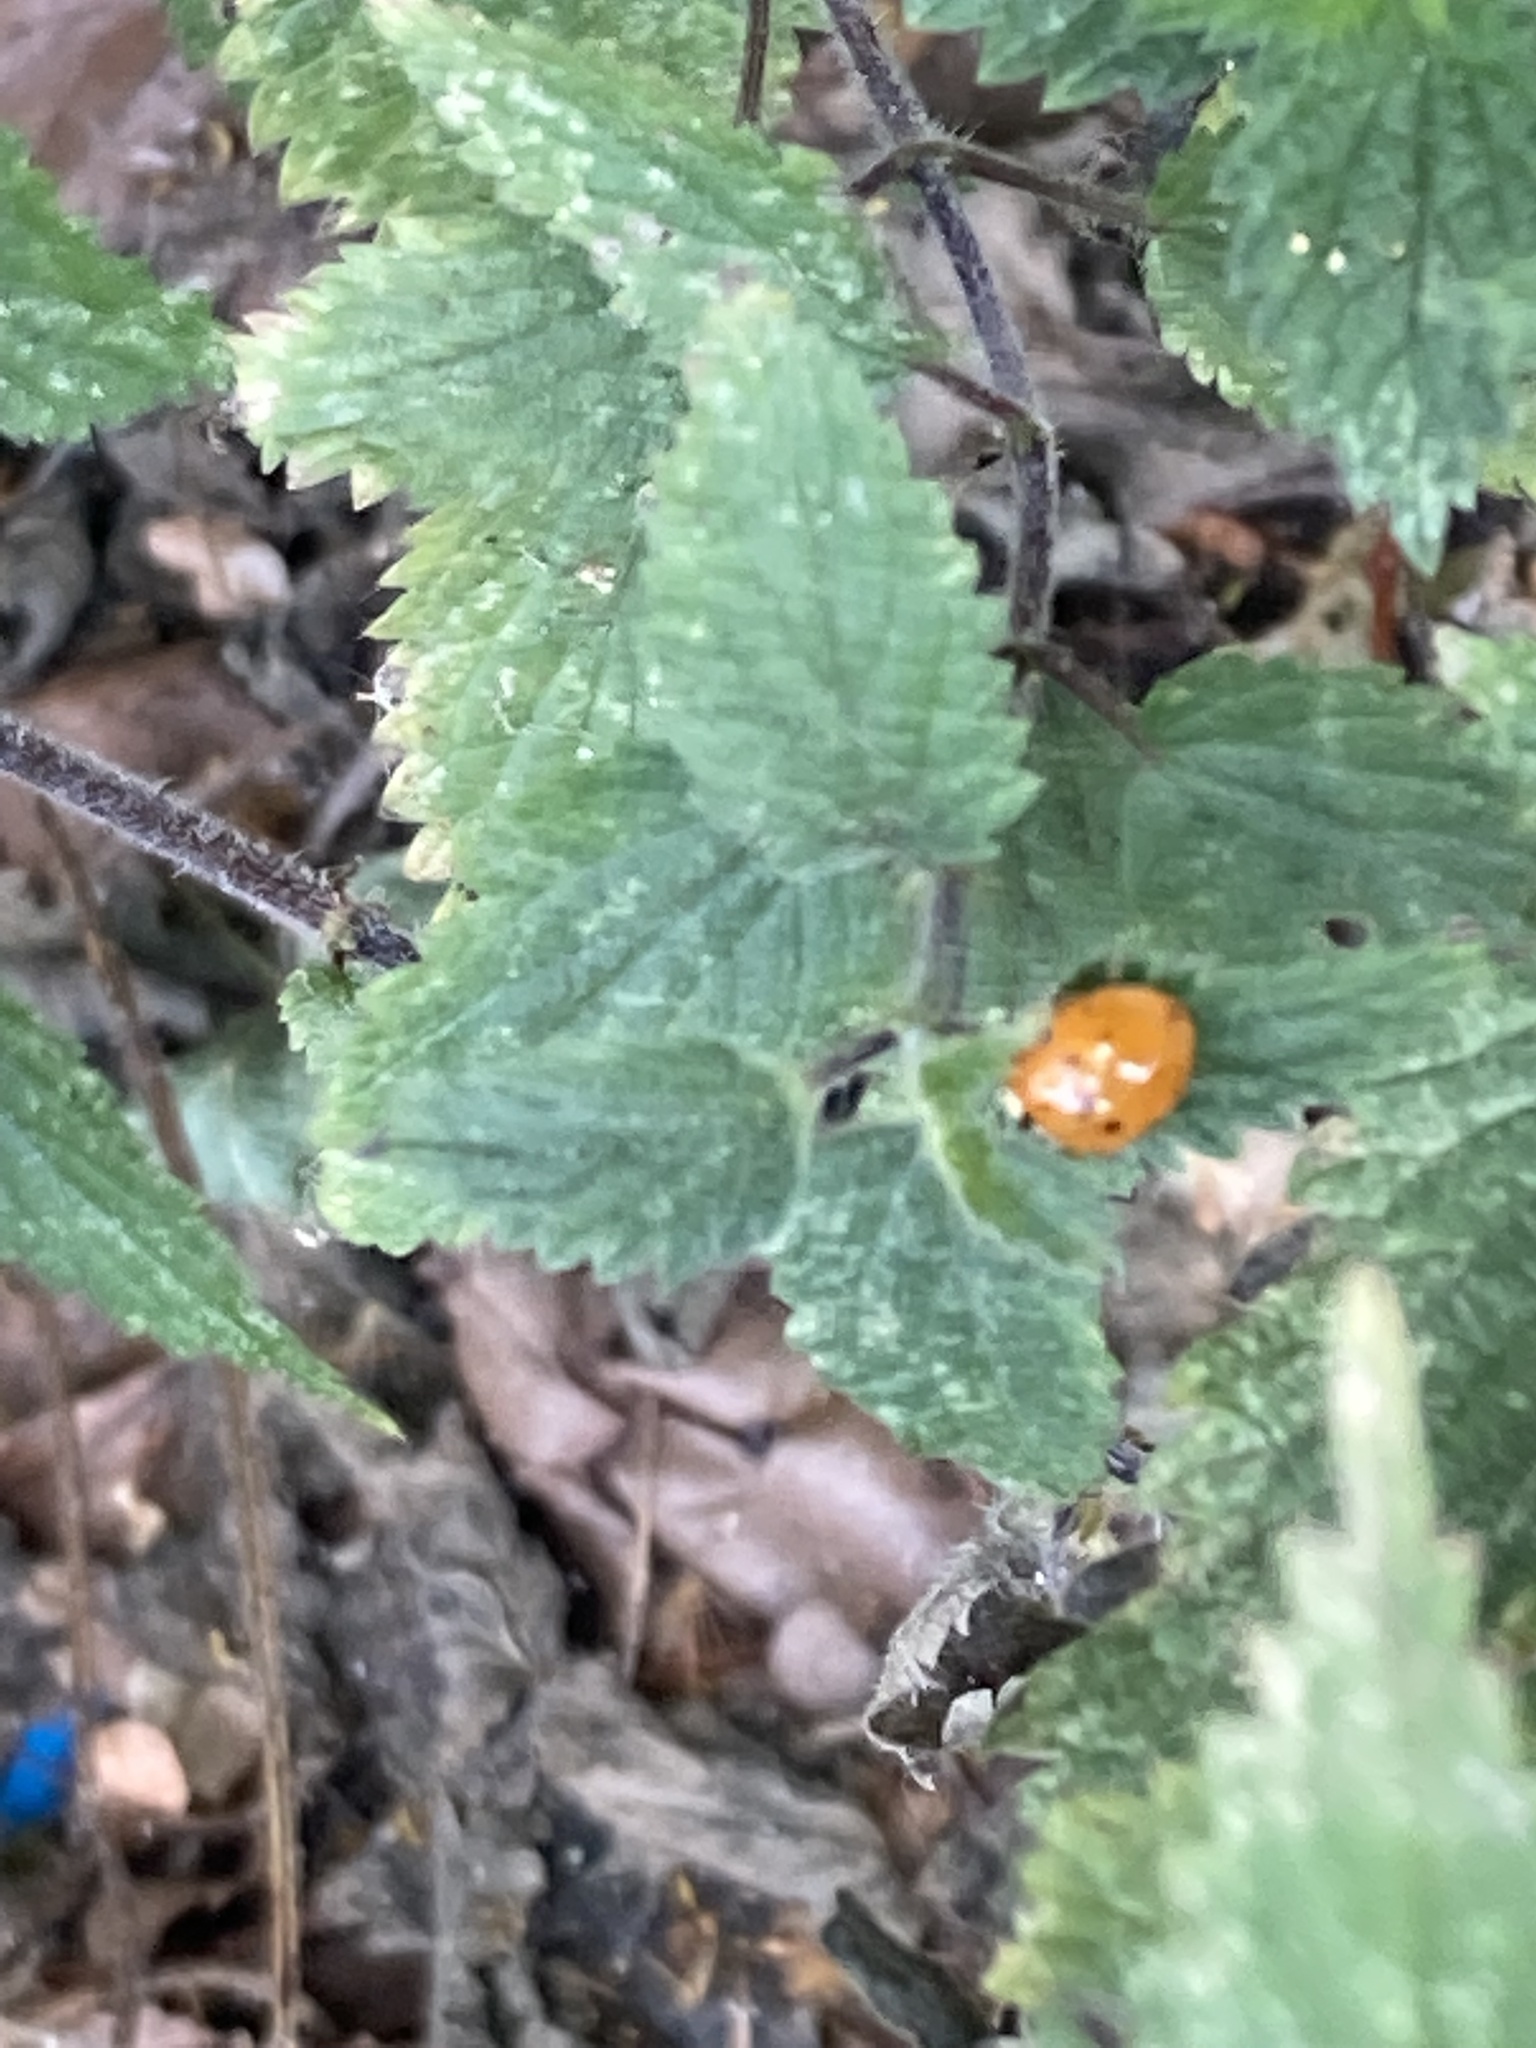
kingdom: Animalia
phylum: Arthropoda
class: Insecta
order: Coleoptera
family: Coccinellidae
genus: Harmonia
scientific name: Harmonia axyridis
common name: Harlequin ladybird
